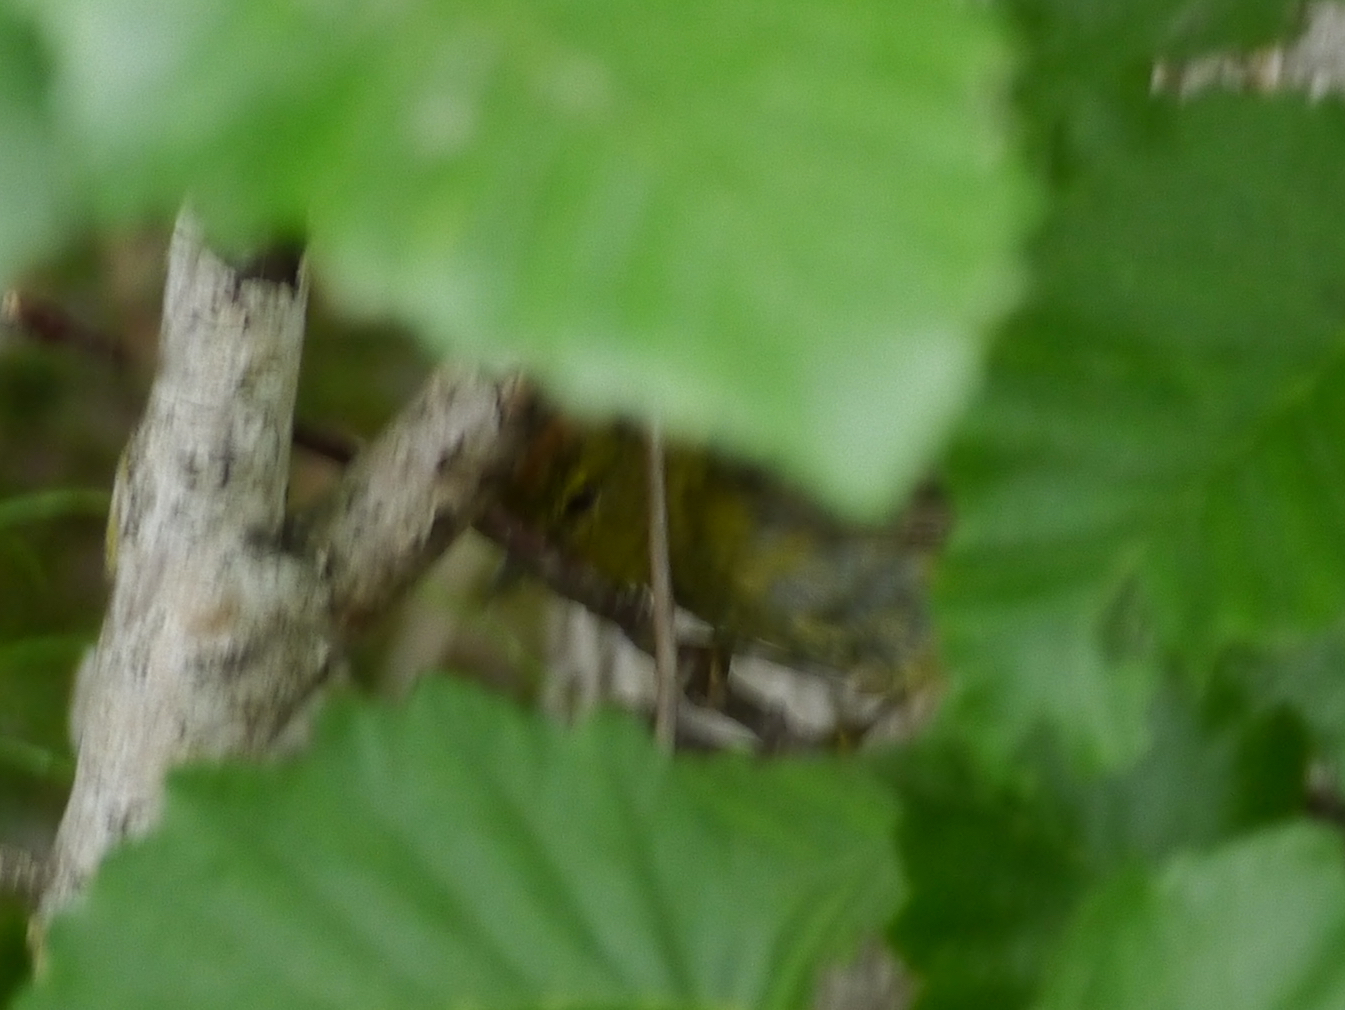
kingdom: Animalia
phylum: Chordata
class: Aves
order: Passeriformes
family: Parulidae
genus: Leiothlypis
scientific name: Leiothlypis celata
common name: Orange-crowned warbler
